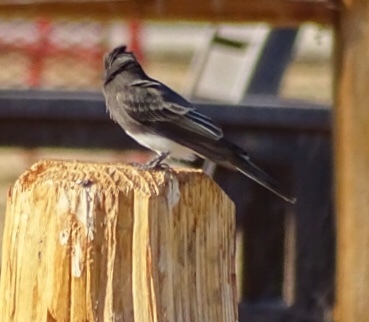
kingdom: Animalia
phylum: Chordata
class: Aves
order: Passeriformes
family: Tyrannidae
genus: Sayornis
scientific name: Sayornis nigricans
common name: Black phoebe
